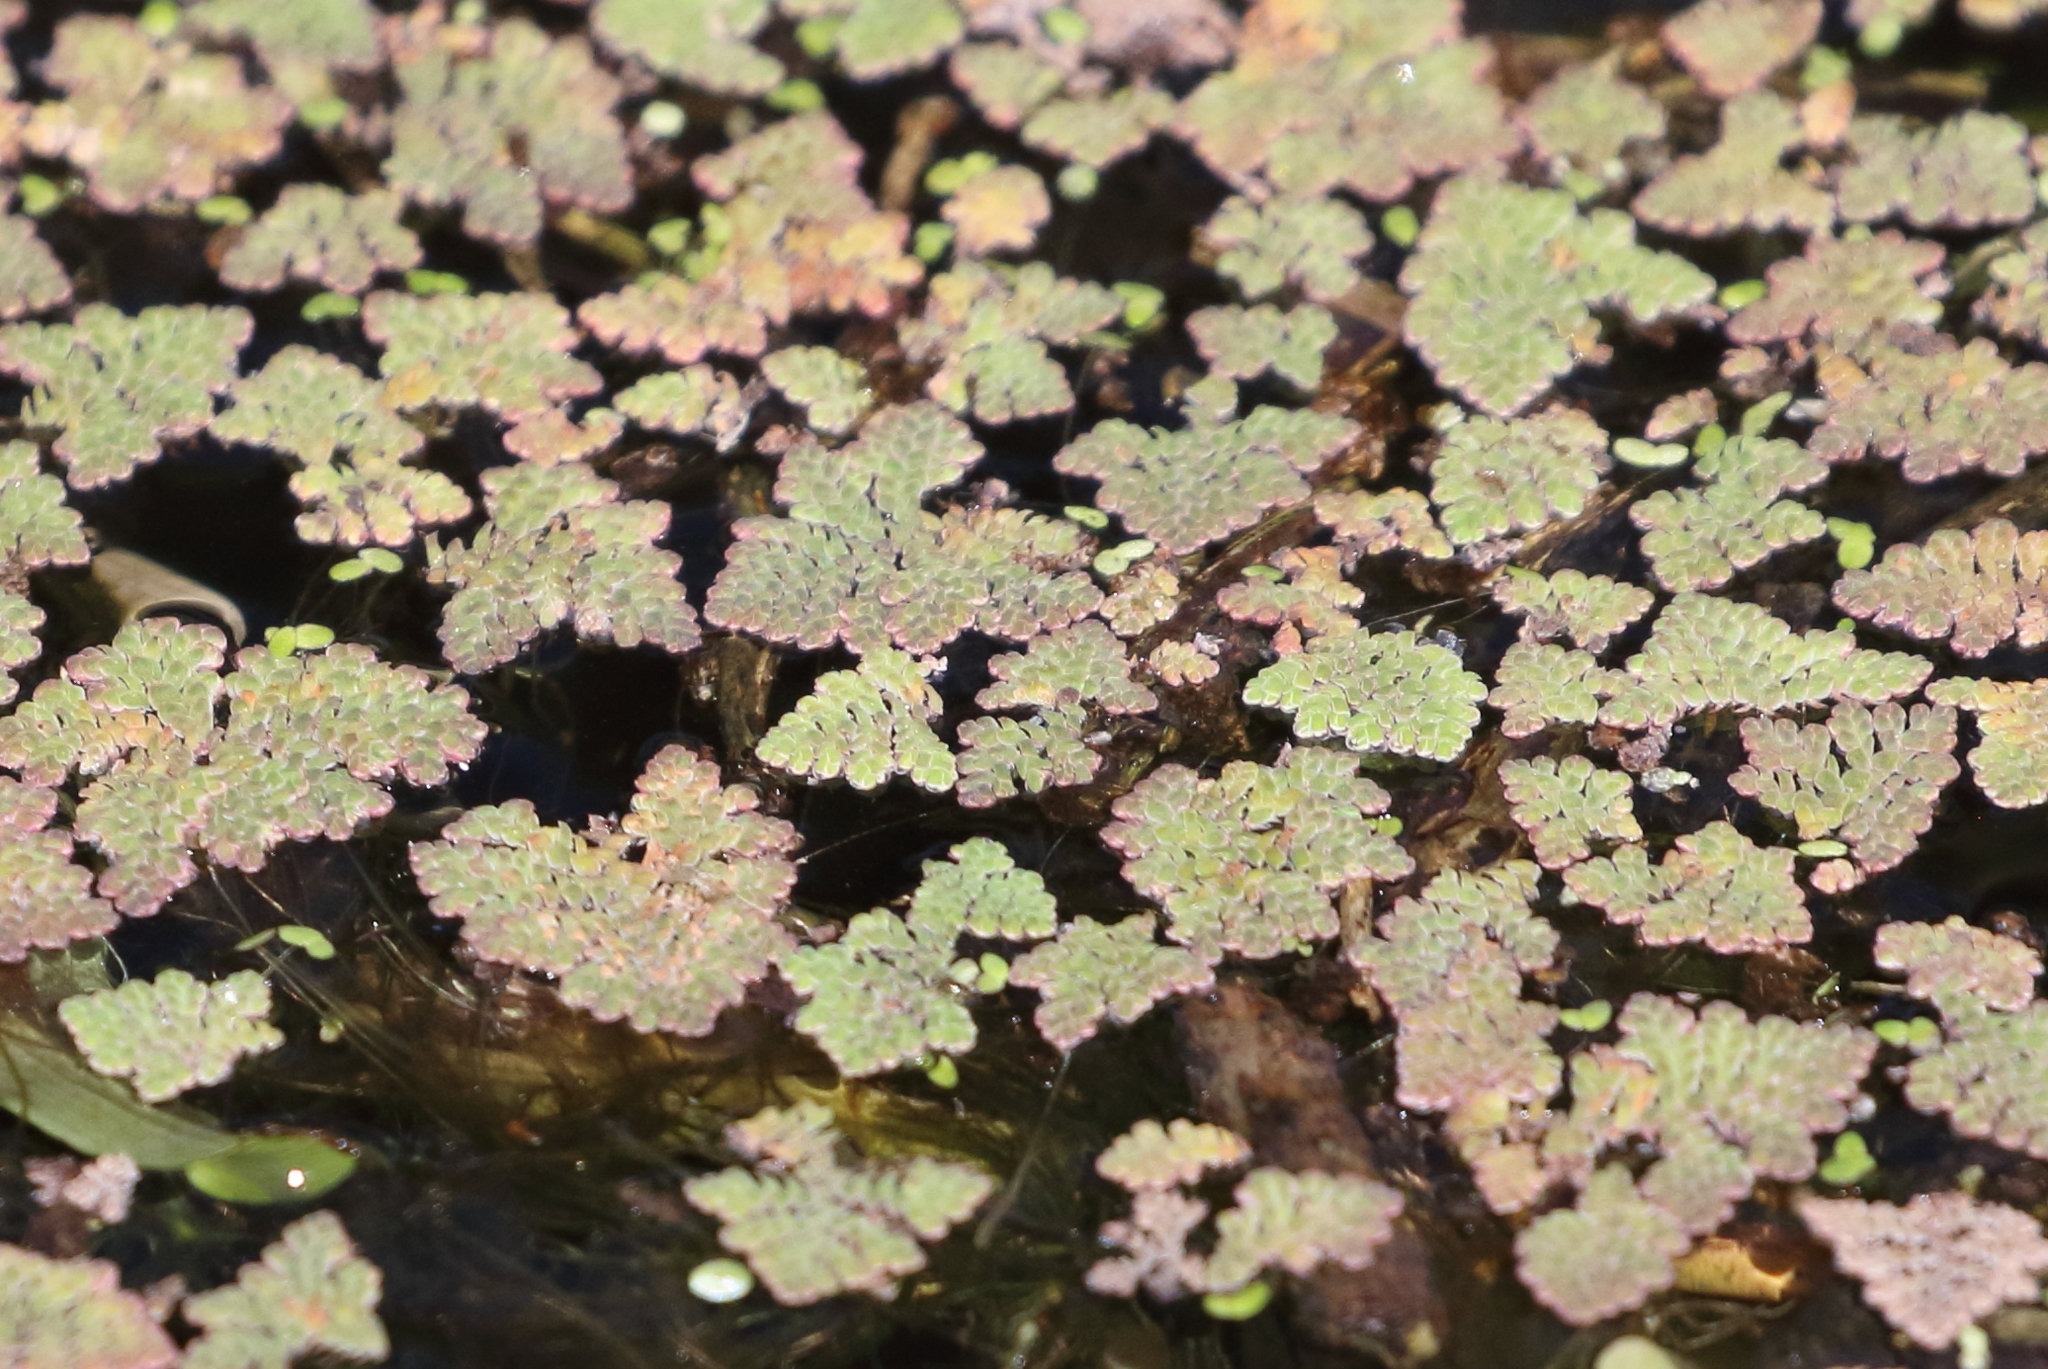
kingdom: Plantae
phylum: Tracheophyta
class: Polypodiopsida
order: Salviniales
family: Salviniaceae
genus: Azolla
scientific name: Azolla pinnata
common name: Ferny azolla
